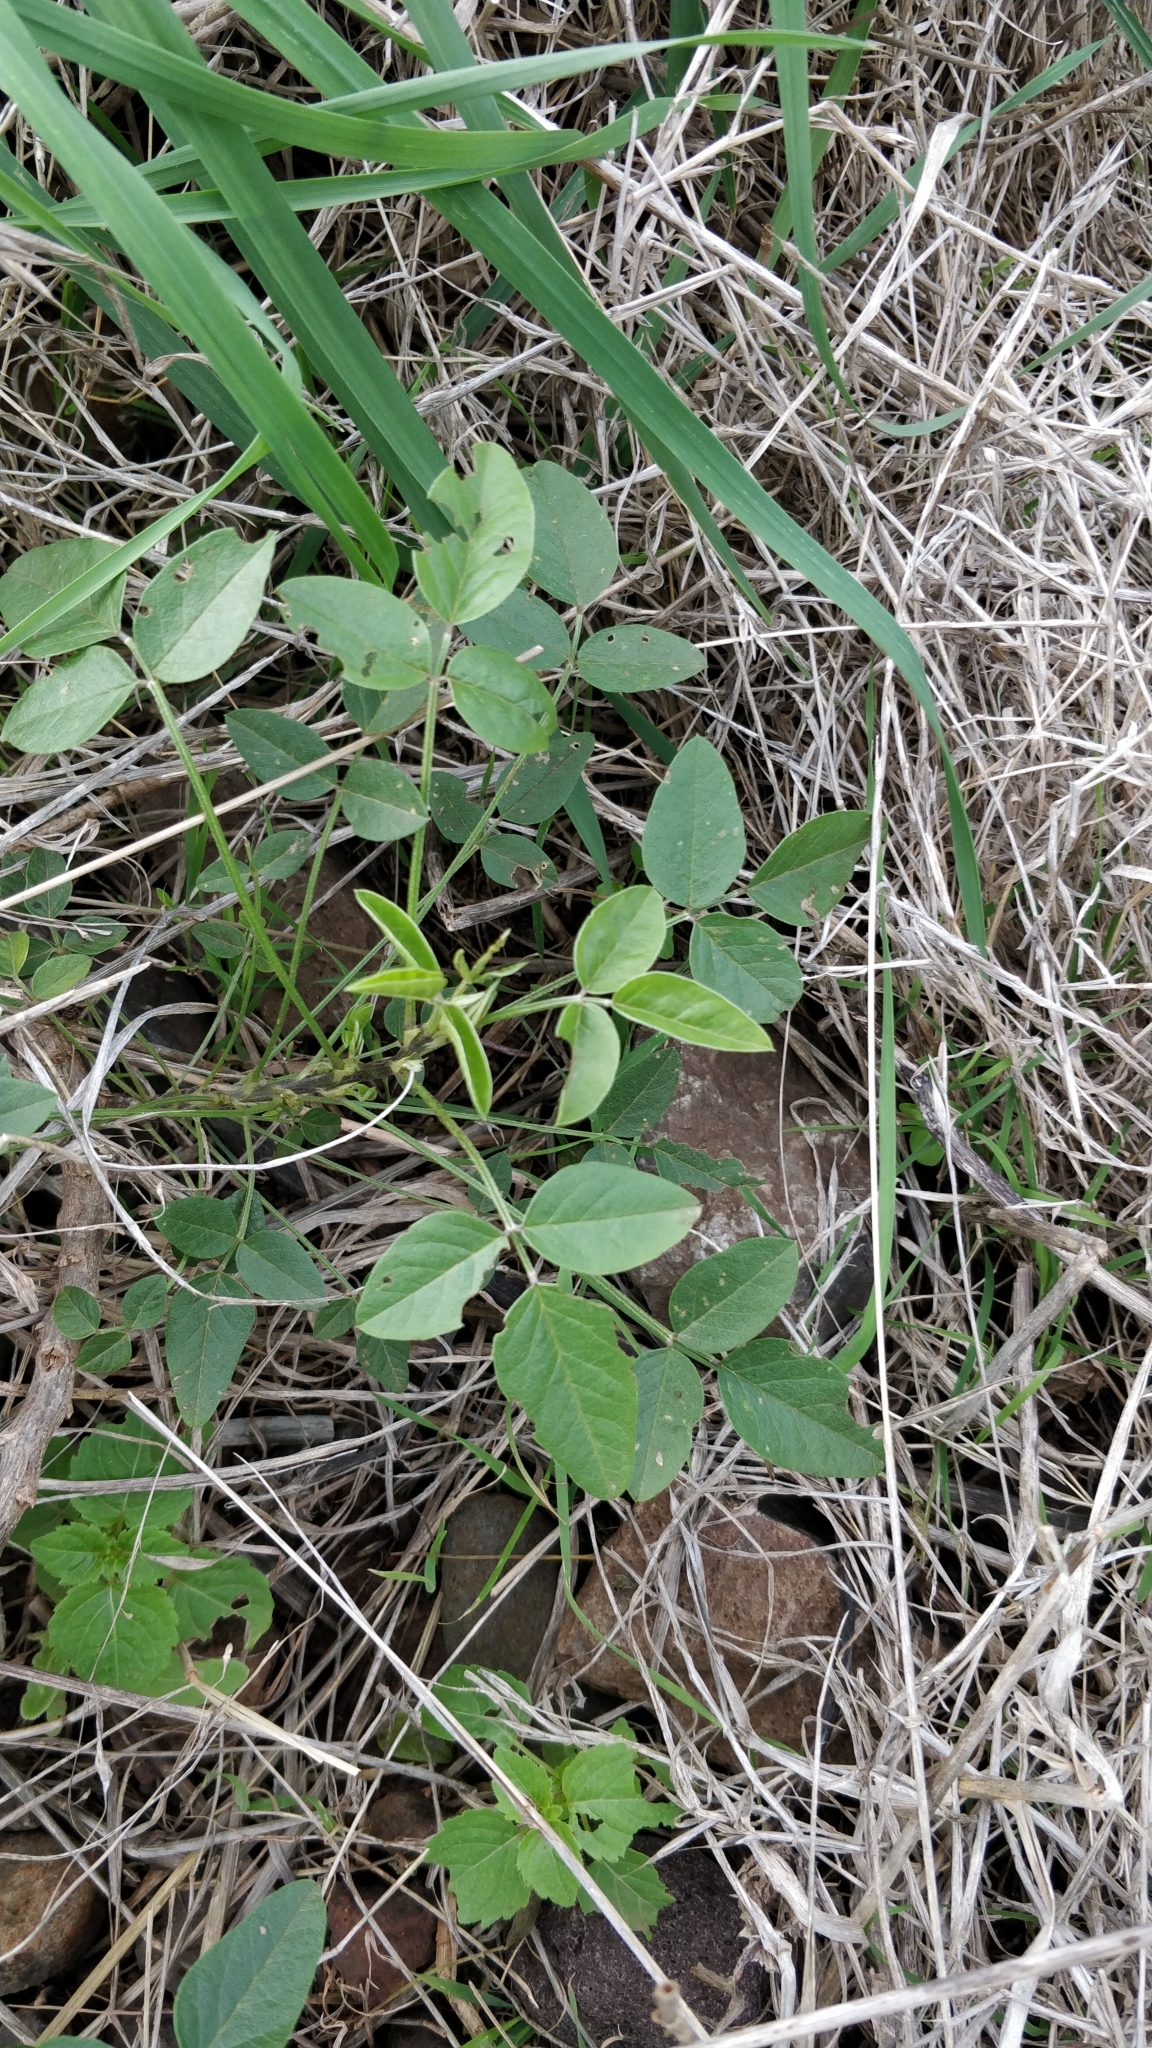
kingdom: Plantae
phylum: Tracheophyta
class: Magnoliopsida
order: Fabales
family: Fabaceae
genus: Bituminaria
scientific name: Bituminaria bituminosa
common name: Arabian pea
